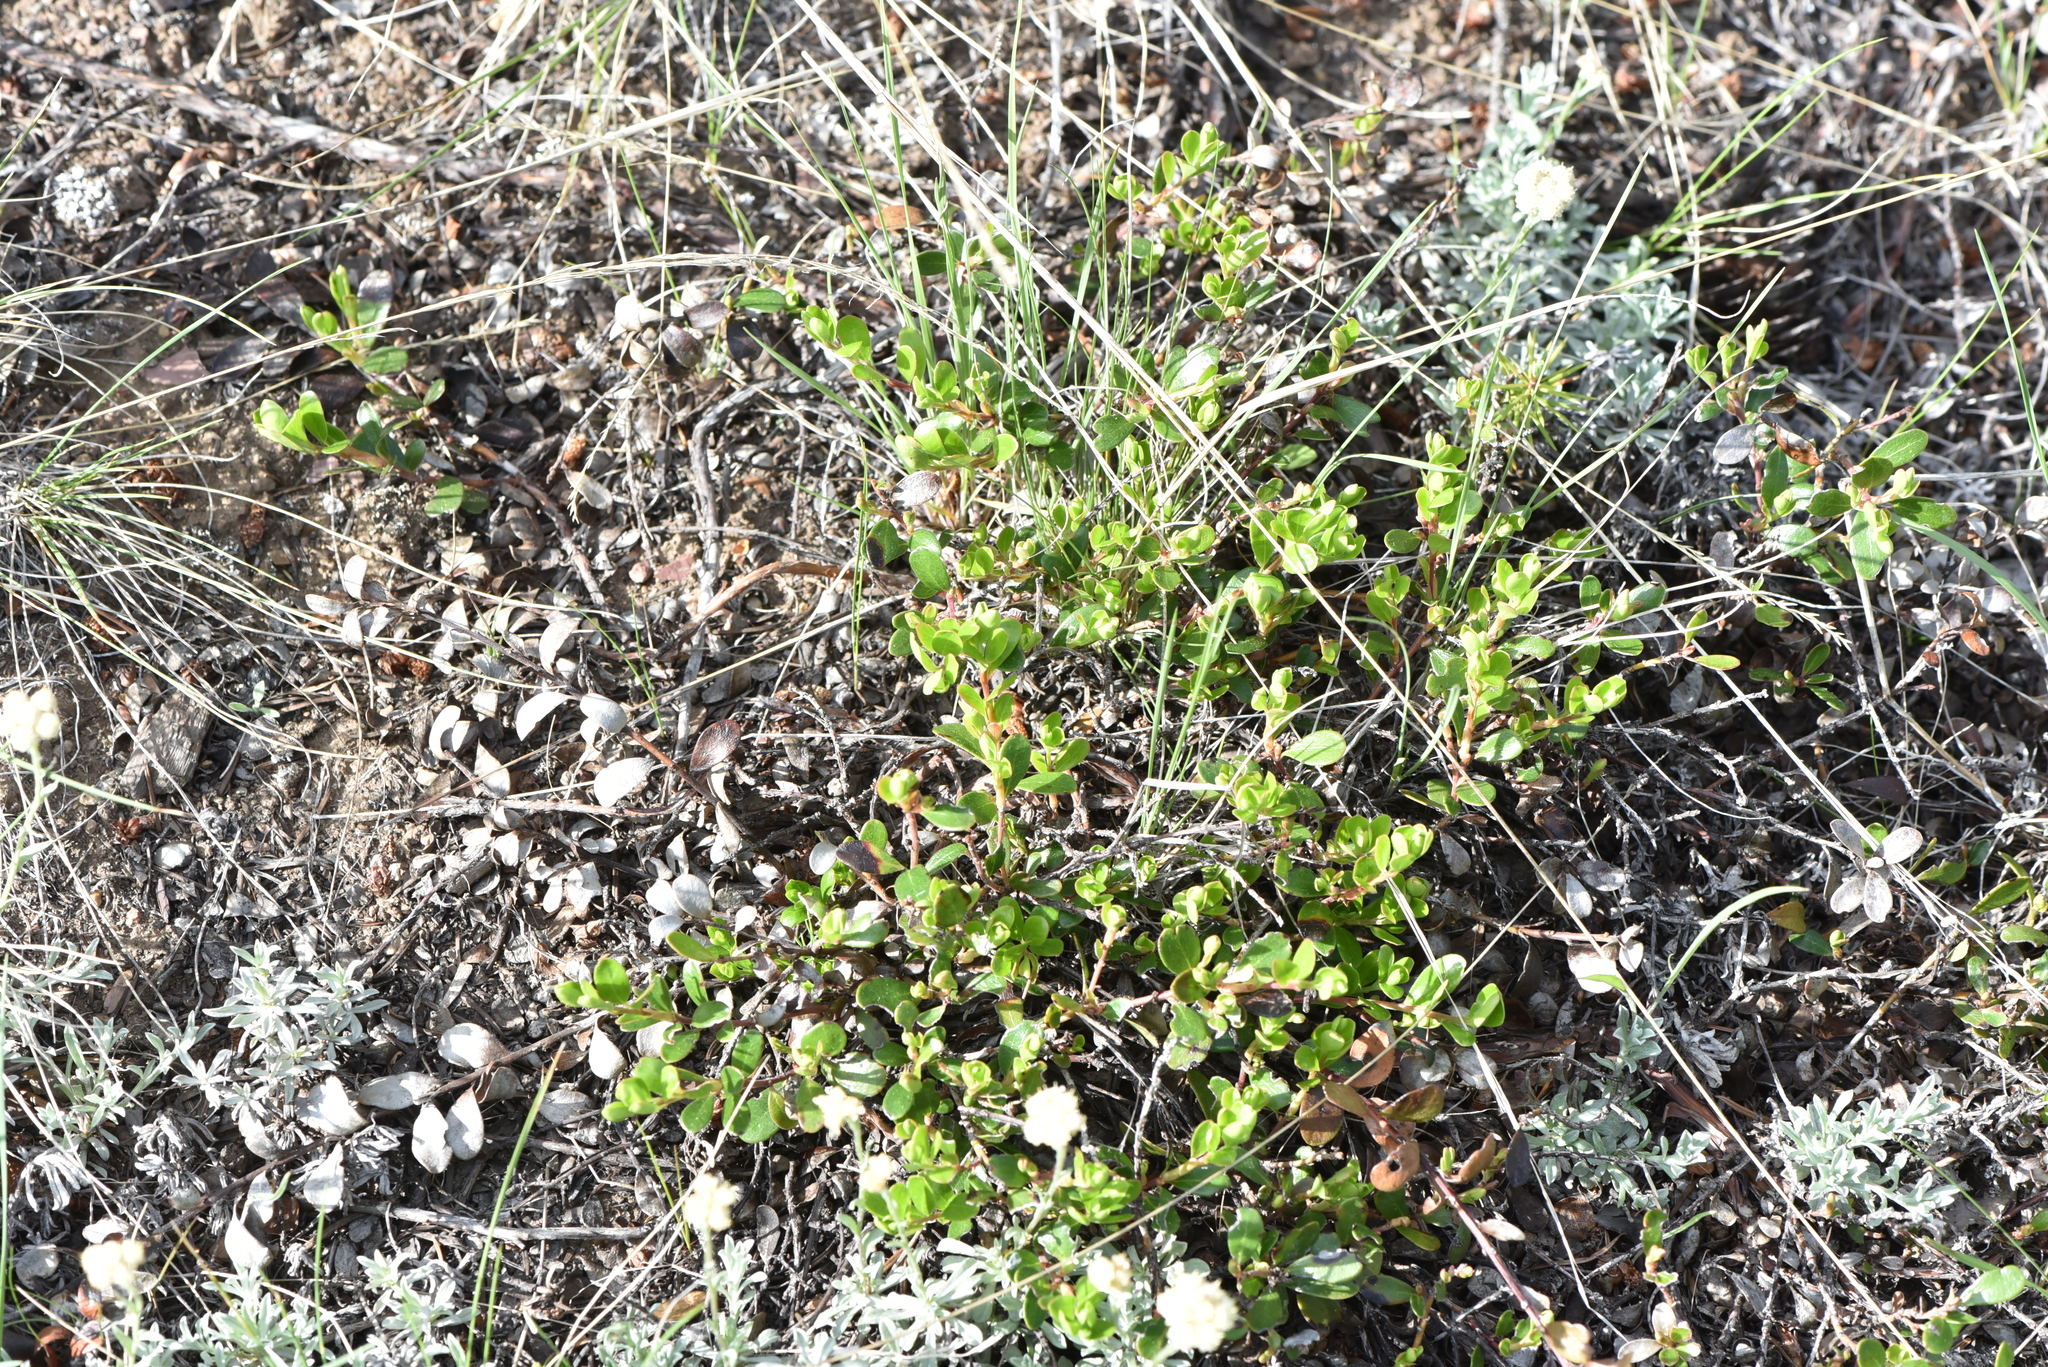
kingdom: Plantae
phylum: Tracheophyta
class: Magnoliopsida
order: Ericales
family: Ericaceae
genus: Arctostaphylos
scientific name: Arctostaphylos uva-ursi
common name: Bearberry
